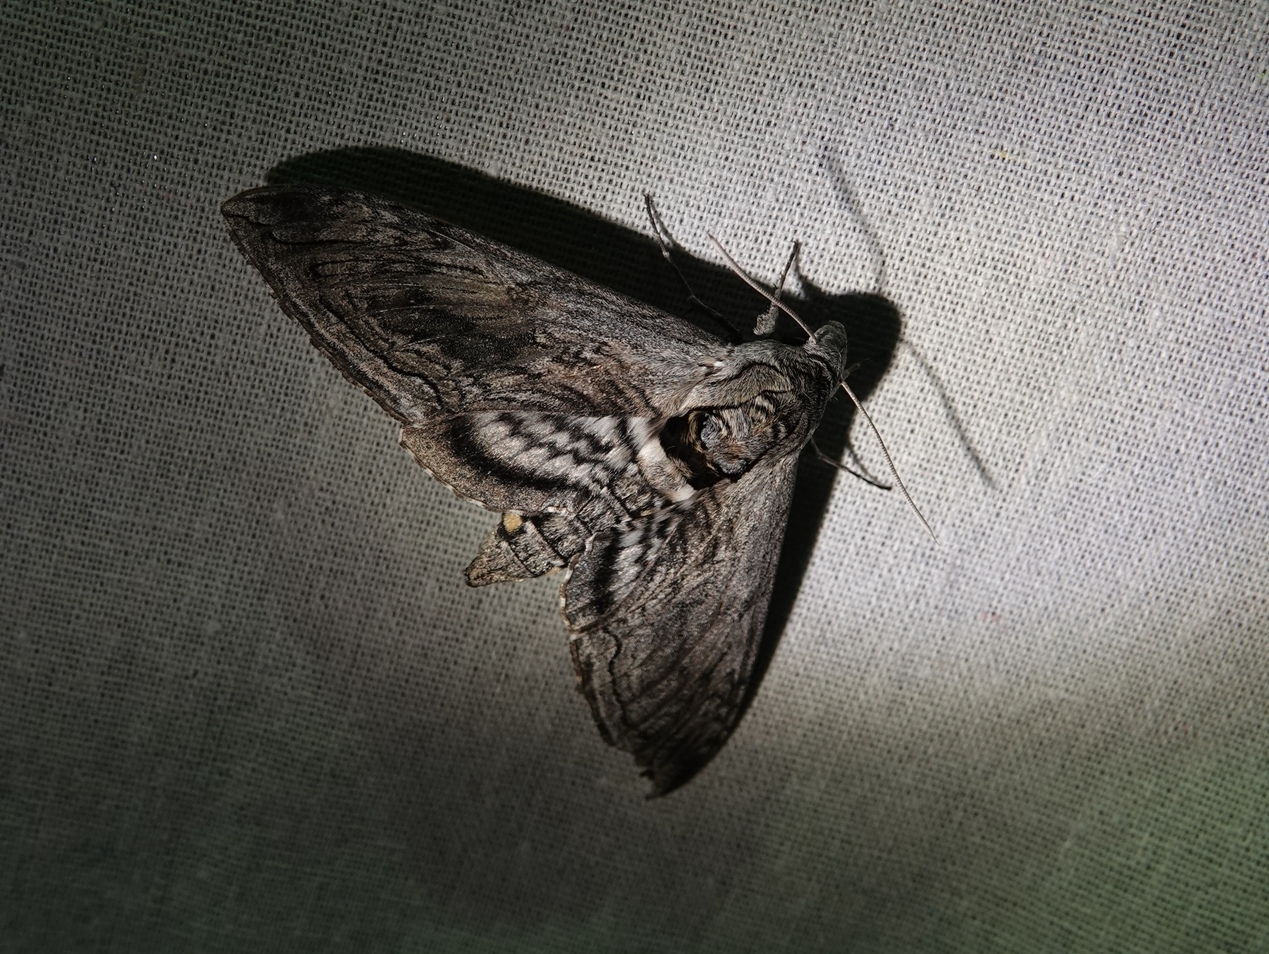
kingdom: Animalia
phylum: Arthropoda
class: Insecta
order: Lepidoptera
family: Sphingidae
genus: Manduca
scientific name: Manduca quinquemaculatus
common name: Five-spotted hawk-moth
